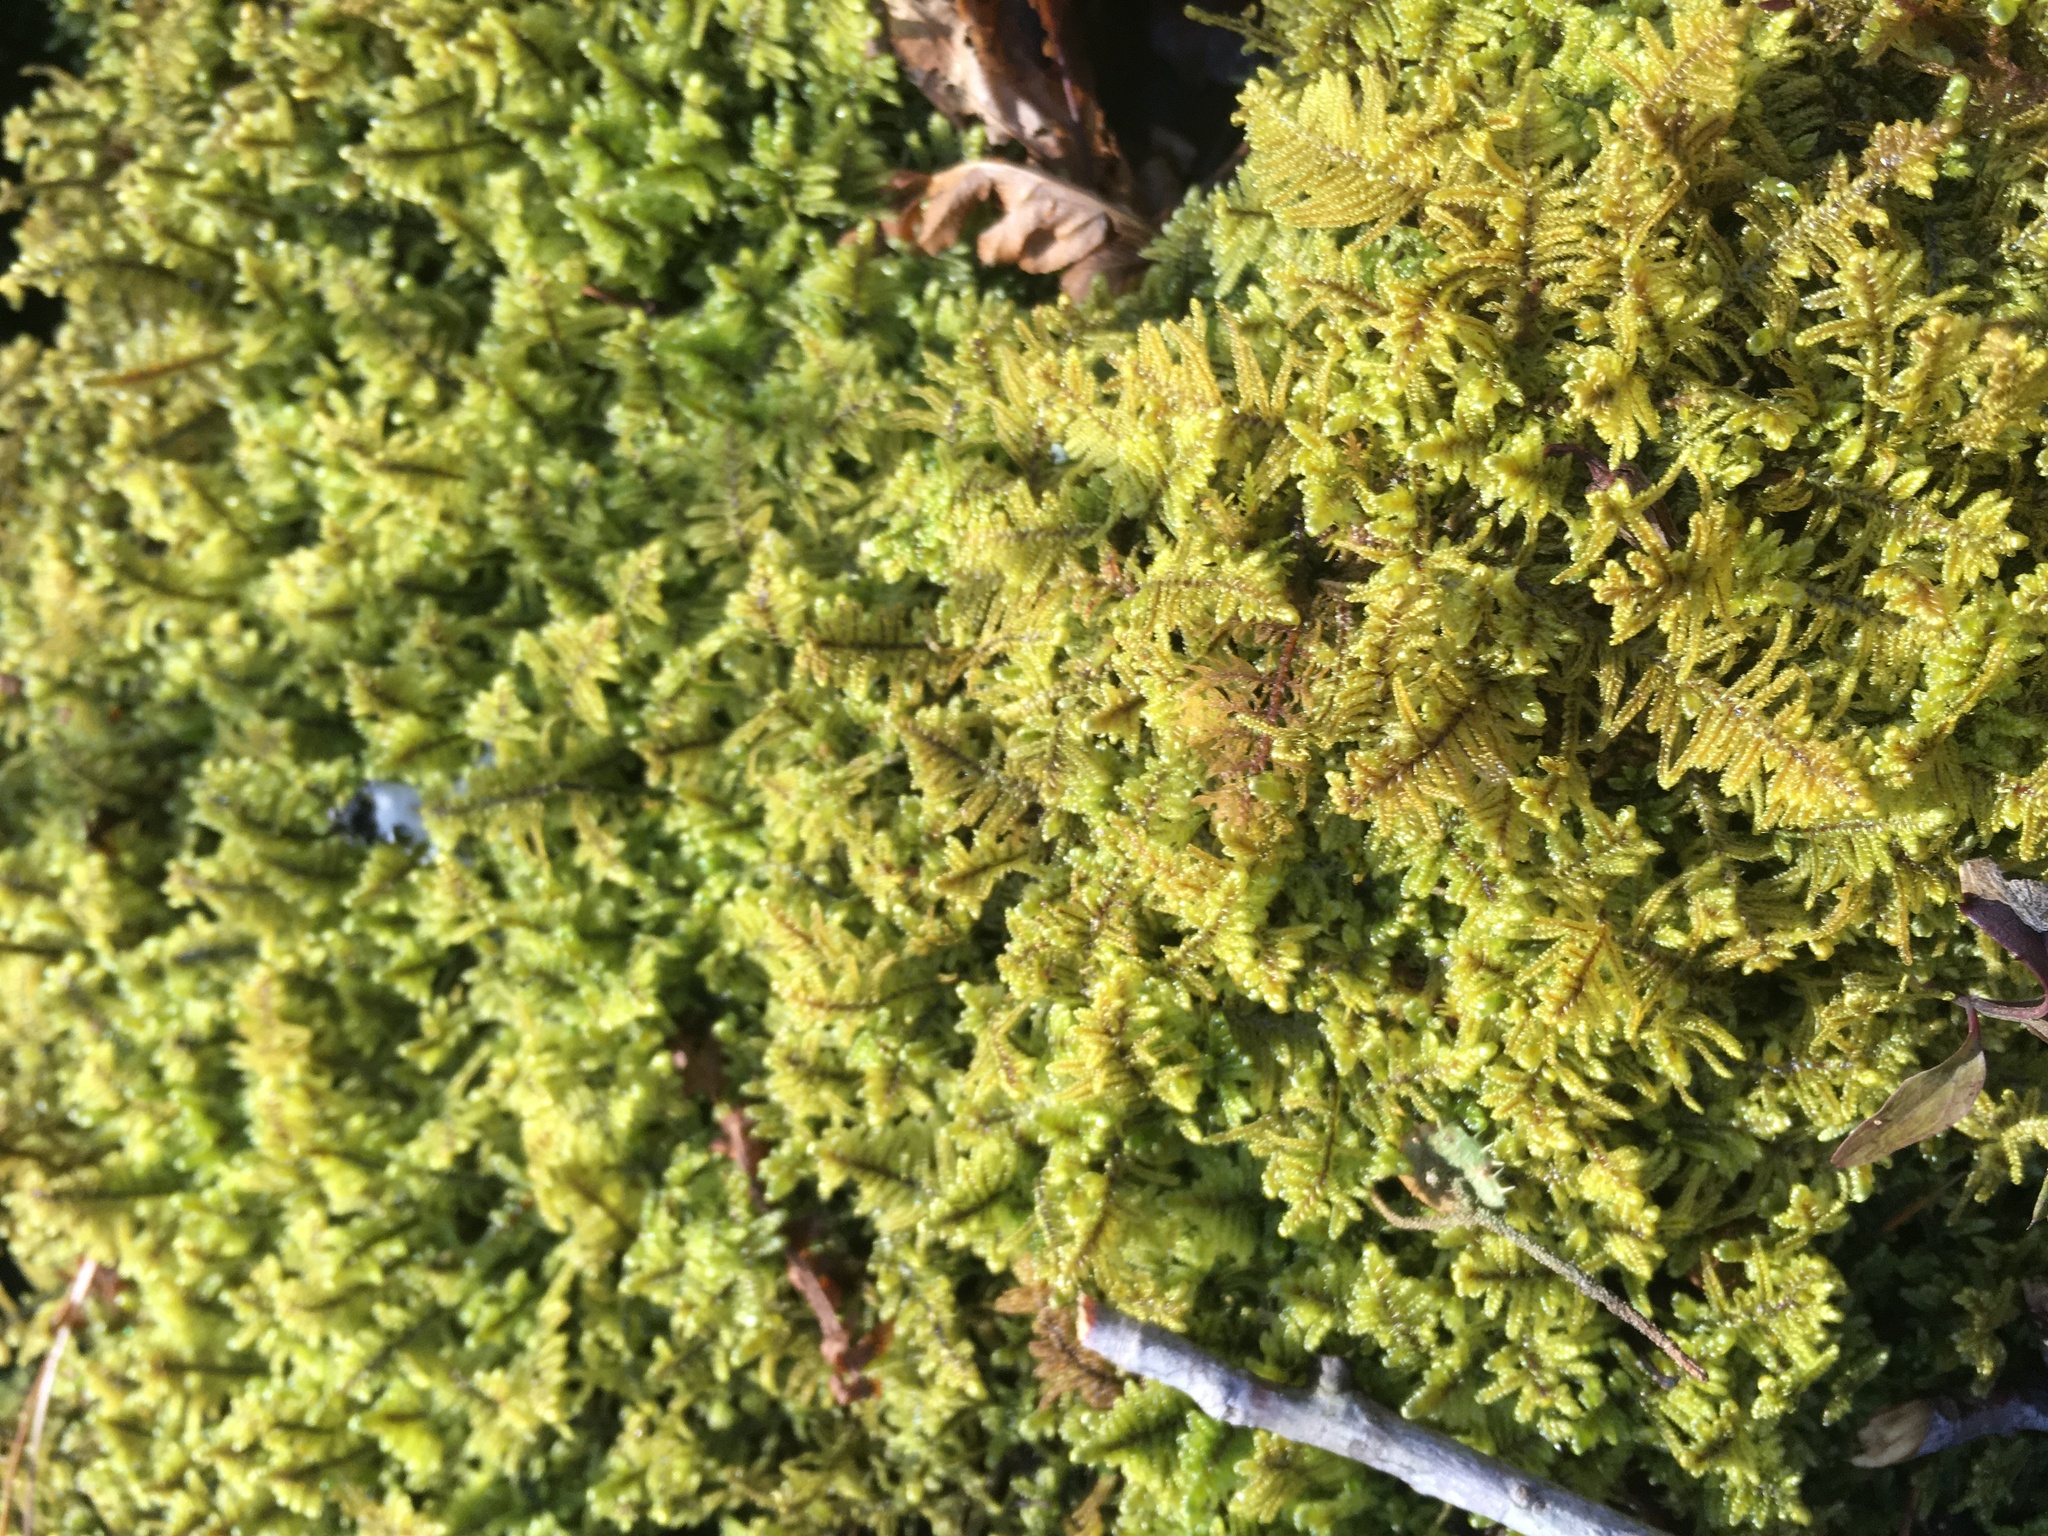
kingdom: Plantae
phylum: Bryophyta
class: Bryopsida
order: Hypnales
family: Callicladiaceae
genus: Callicladium
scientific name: Callicladium imponens
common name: Brocade moss
